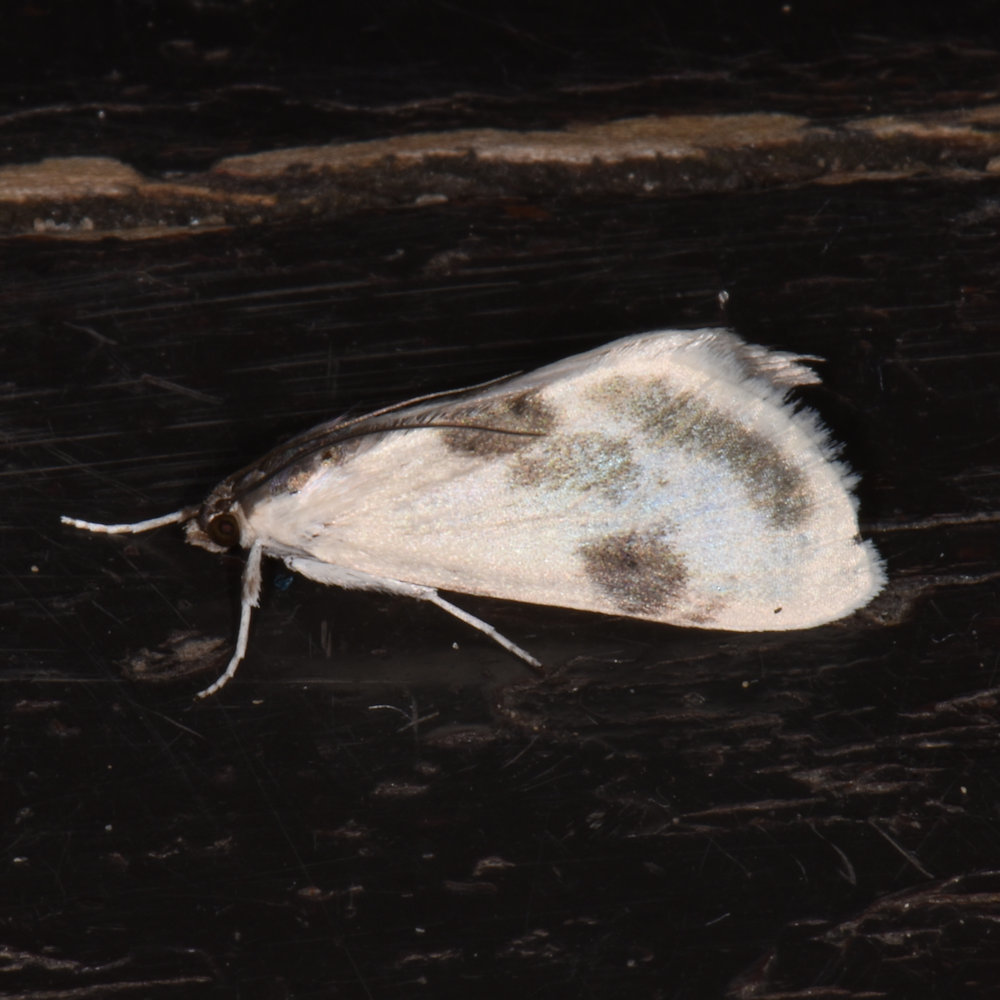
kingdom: Animalia
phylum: Arthropoda
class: Insecta
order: Lepidoptera
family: Crambidae
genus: Cliniodes
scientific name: Cliniodes
